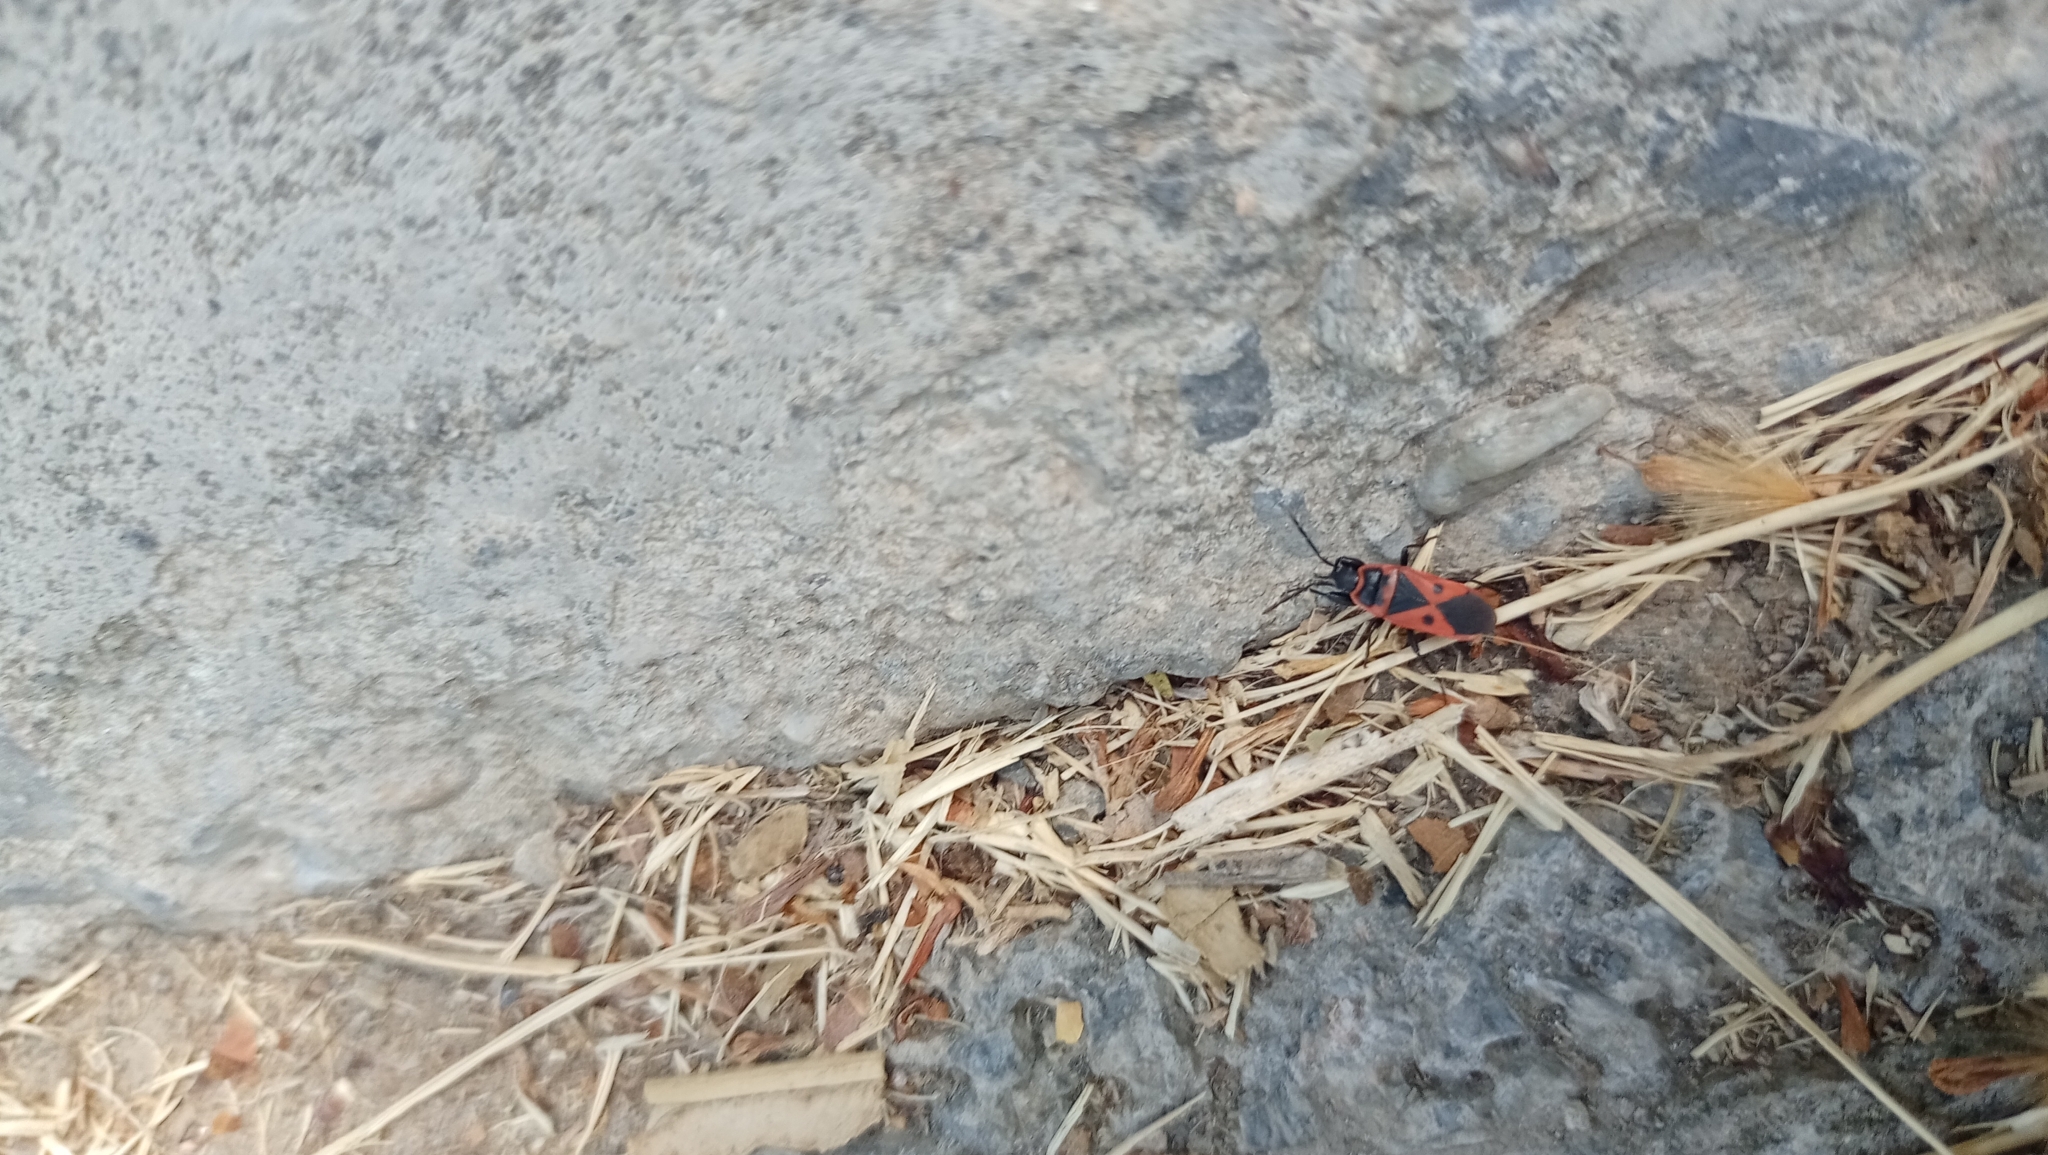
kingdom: Animalia
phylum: Arthropoda
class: Insecta
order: Hemiptera
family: Pyrrhocoridae
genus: Scantius
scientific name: Scantius aegyptius
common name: Red bug
